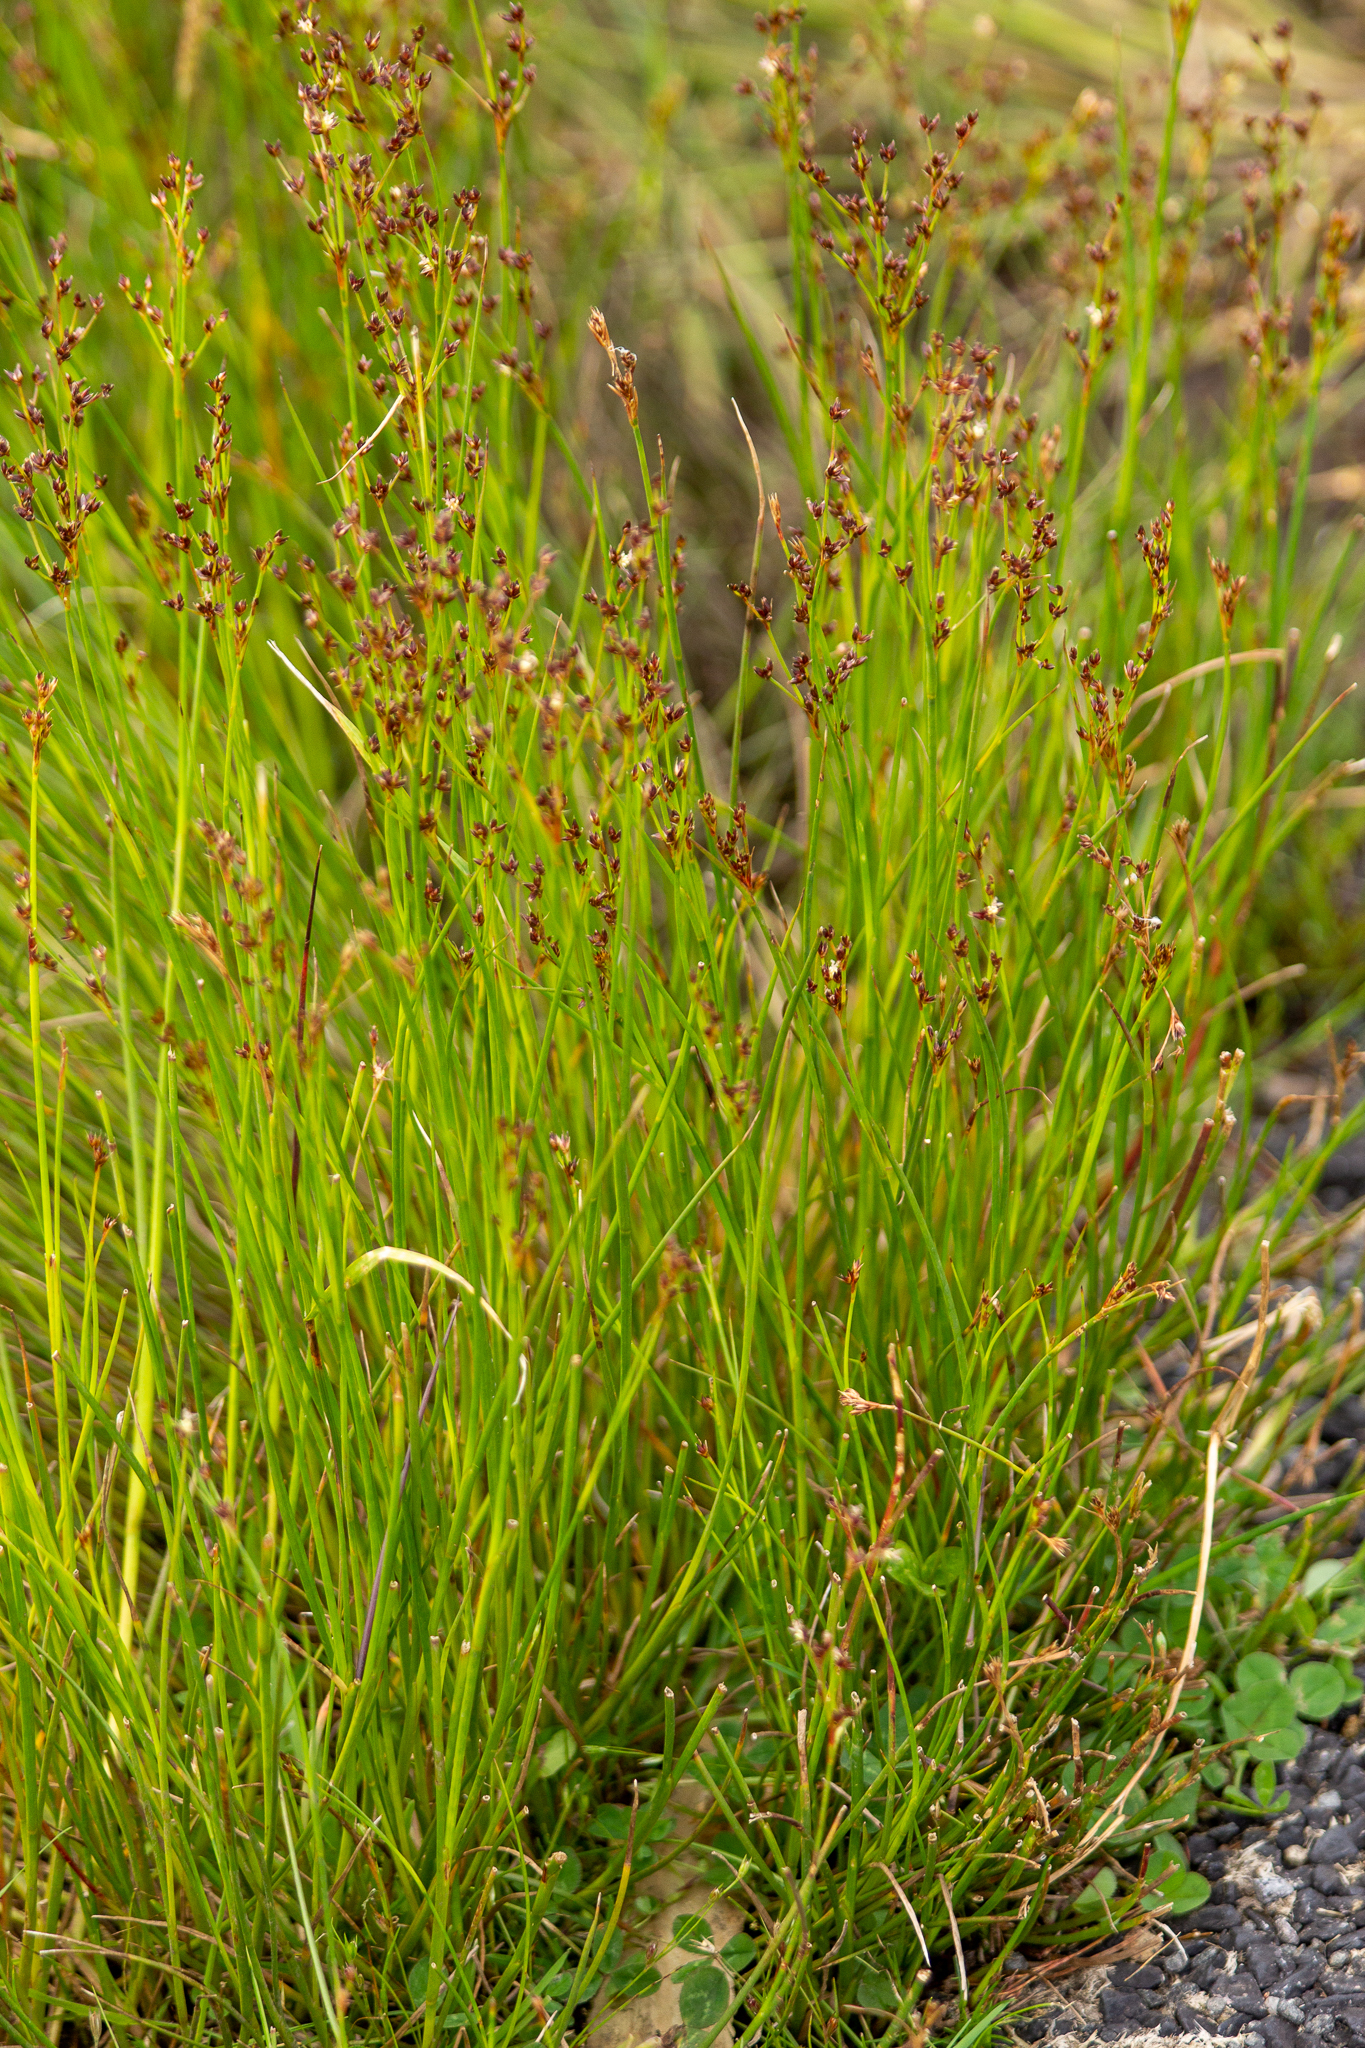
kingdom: Plantae
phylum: Tracheophyta
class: Liliopsida
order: Poales
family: Juncaceae
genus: Juncus
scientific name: Juncus articulatus
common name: Jointed rush
